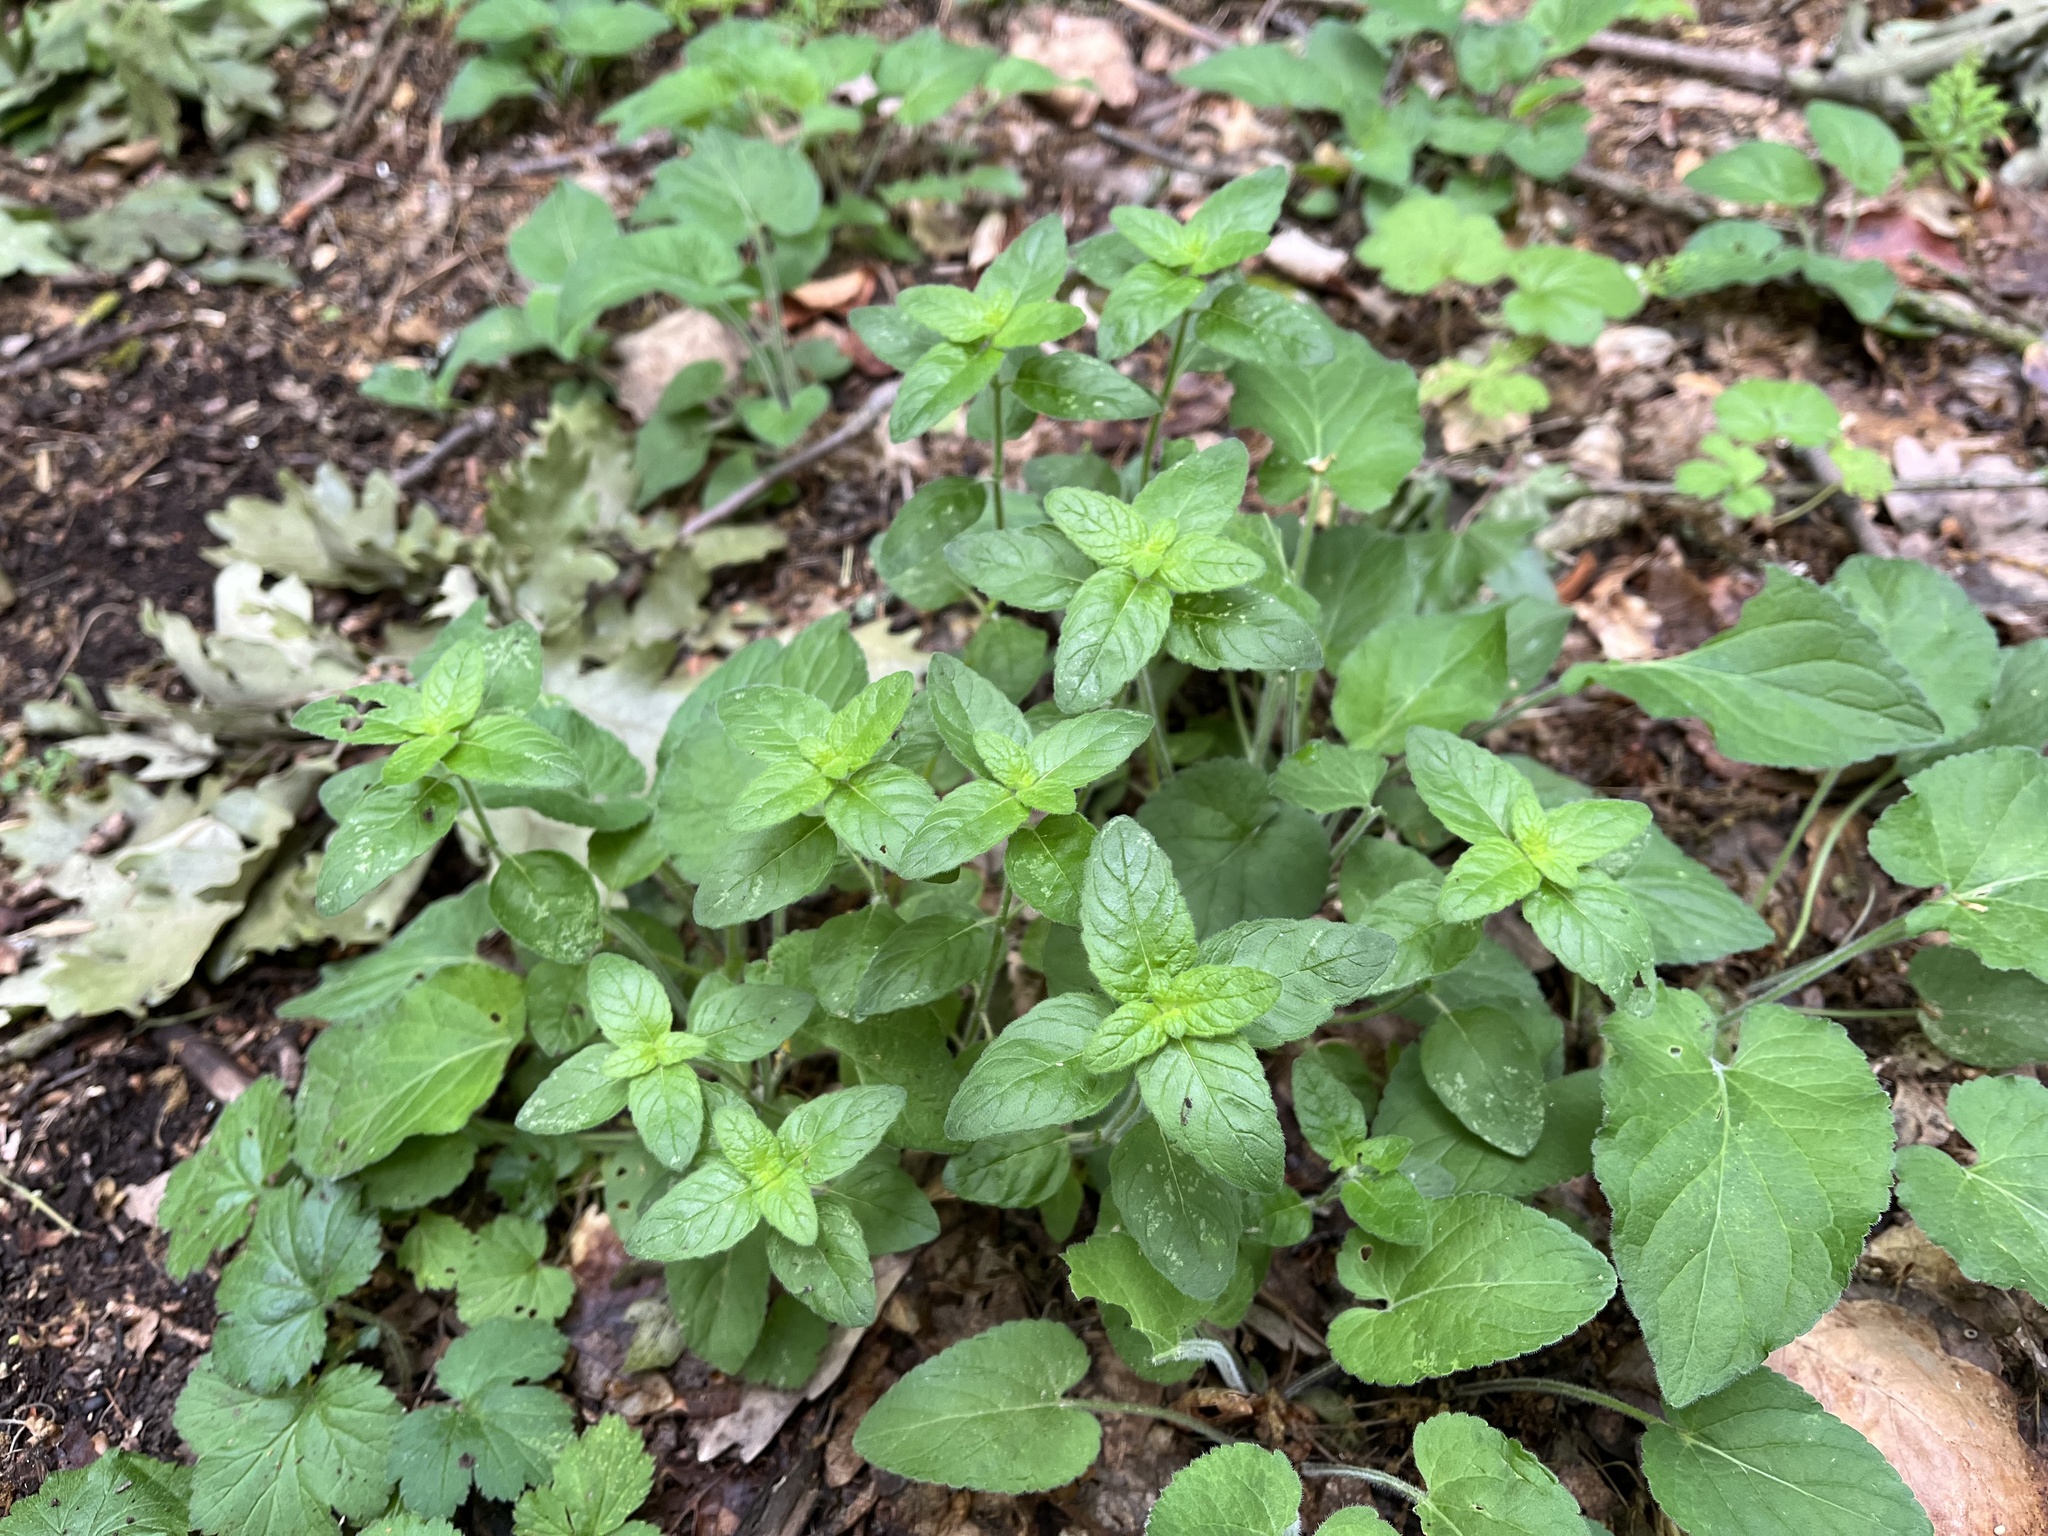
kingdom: Plantae
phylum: Tracheophyta
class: Magnoliopsida
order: Lamiales
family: Lamiaceae
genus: Origanum
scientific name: Origanum vulgare
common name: Wild marjoram
